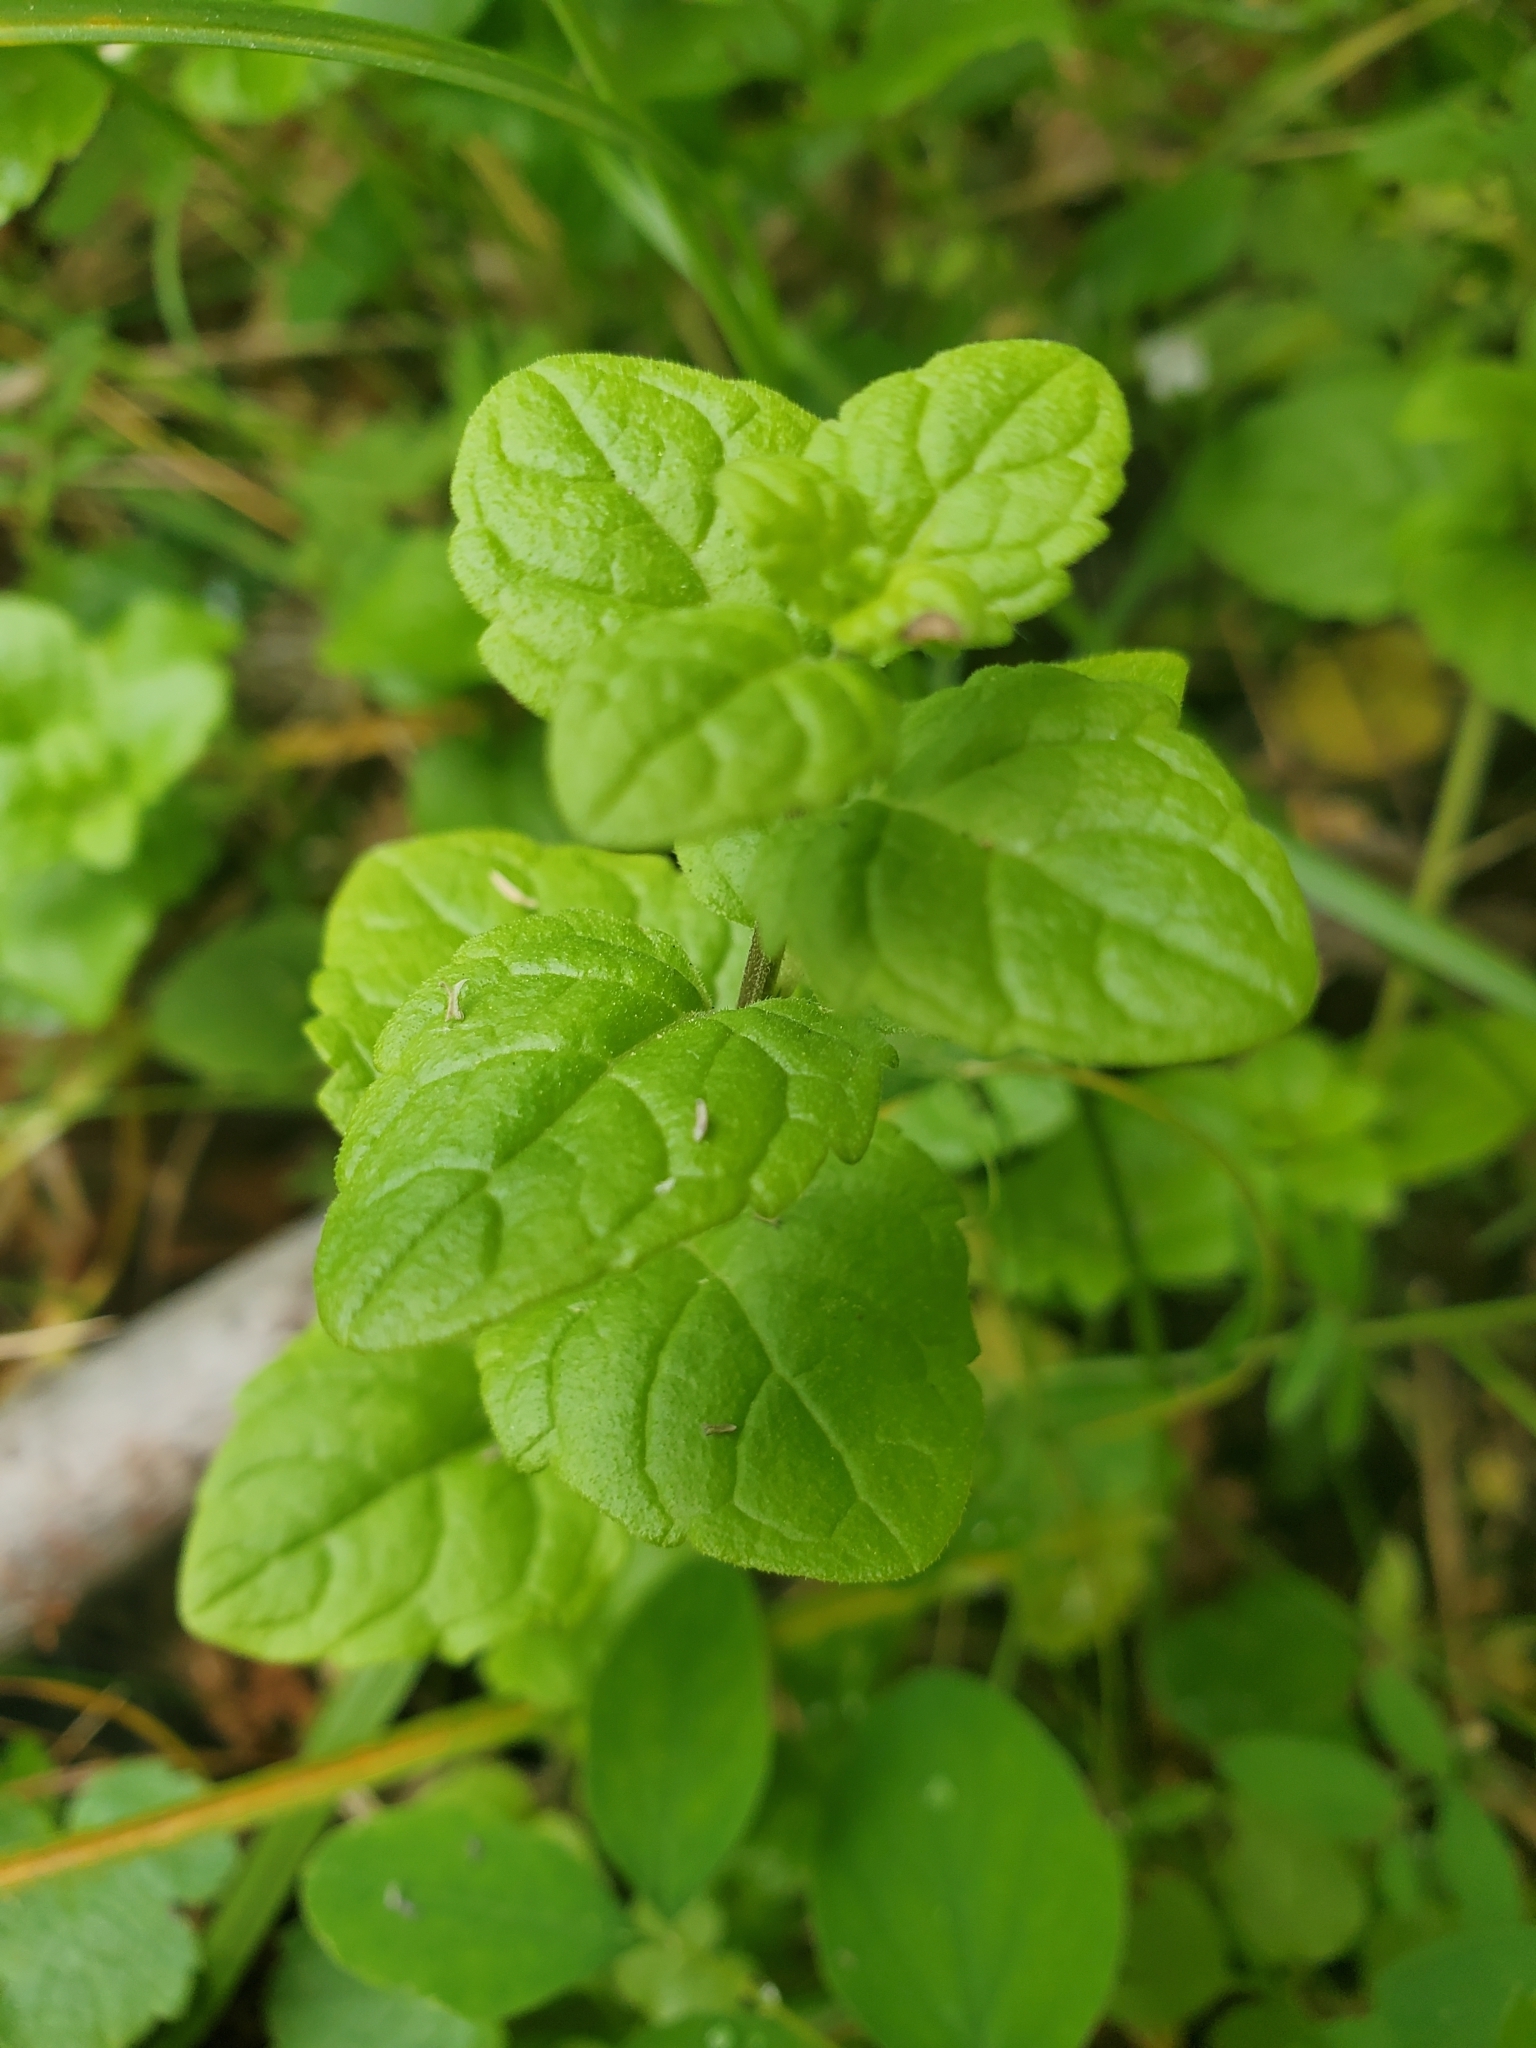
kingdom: Plantae
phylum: Tracheophyta
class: Magnoliopsida
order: Lamiales
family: Lamiaceae
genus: Micromeria
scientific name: Micromeria douglasii
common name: Yerba buena
